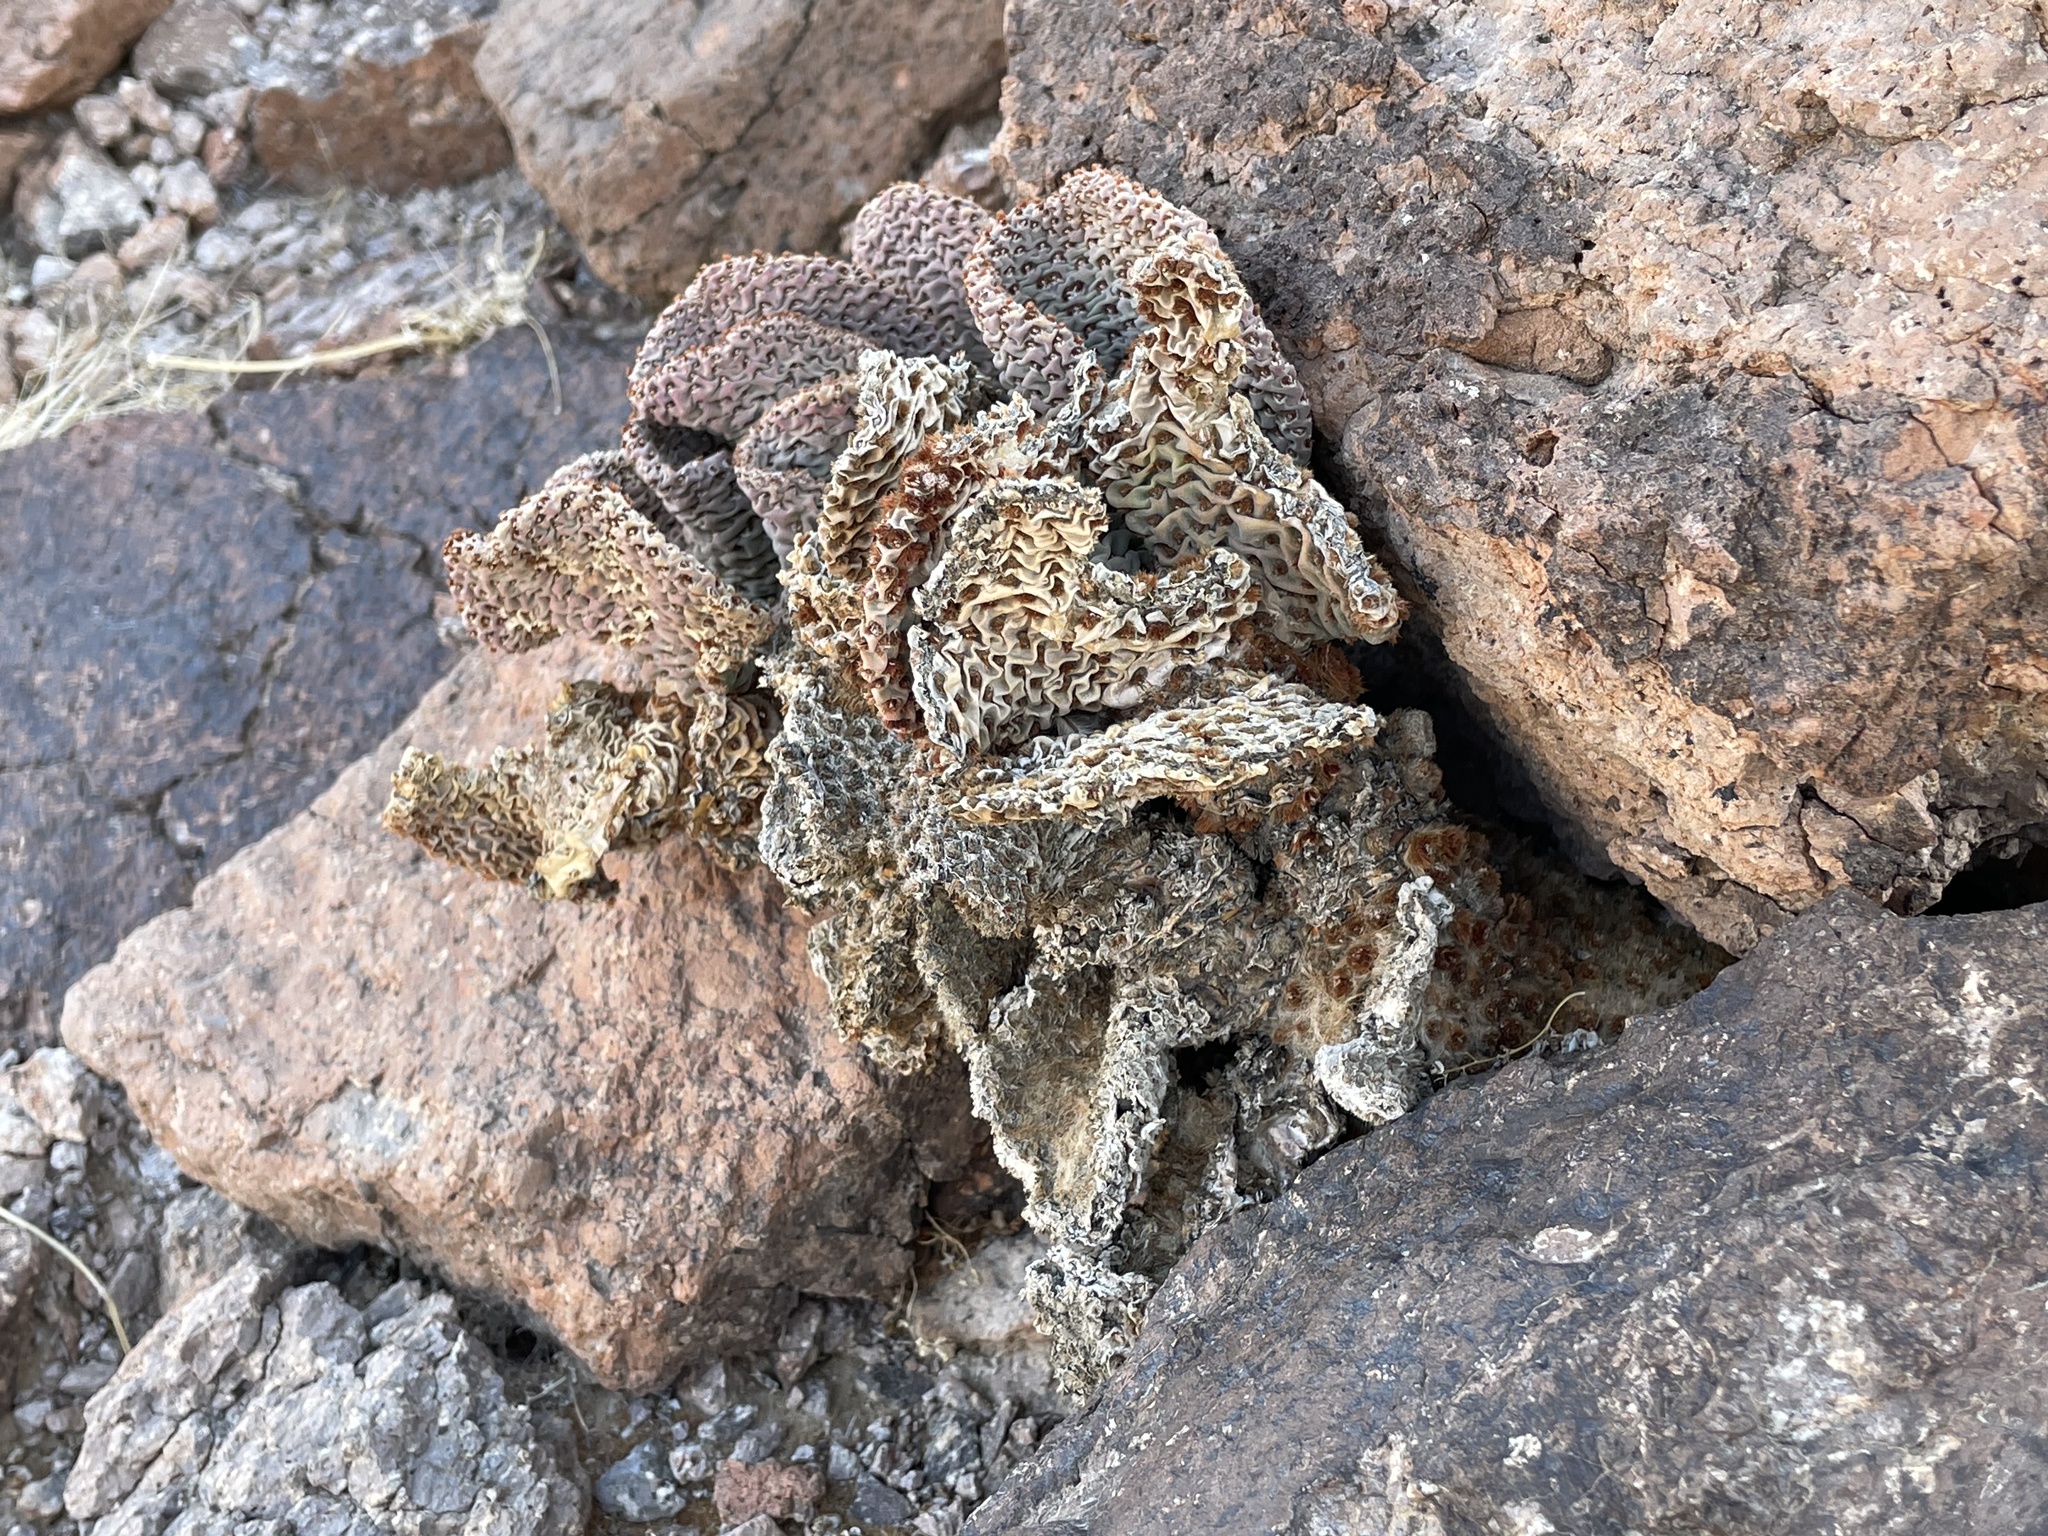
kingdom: Plantae
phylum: Tracheophyta
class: Magnoliopsida
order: Caryophyllales
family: Cactaceae
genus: Opuntia
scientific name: Opuntia basilaris
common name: Beavertail prickly-pear
